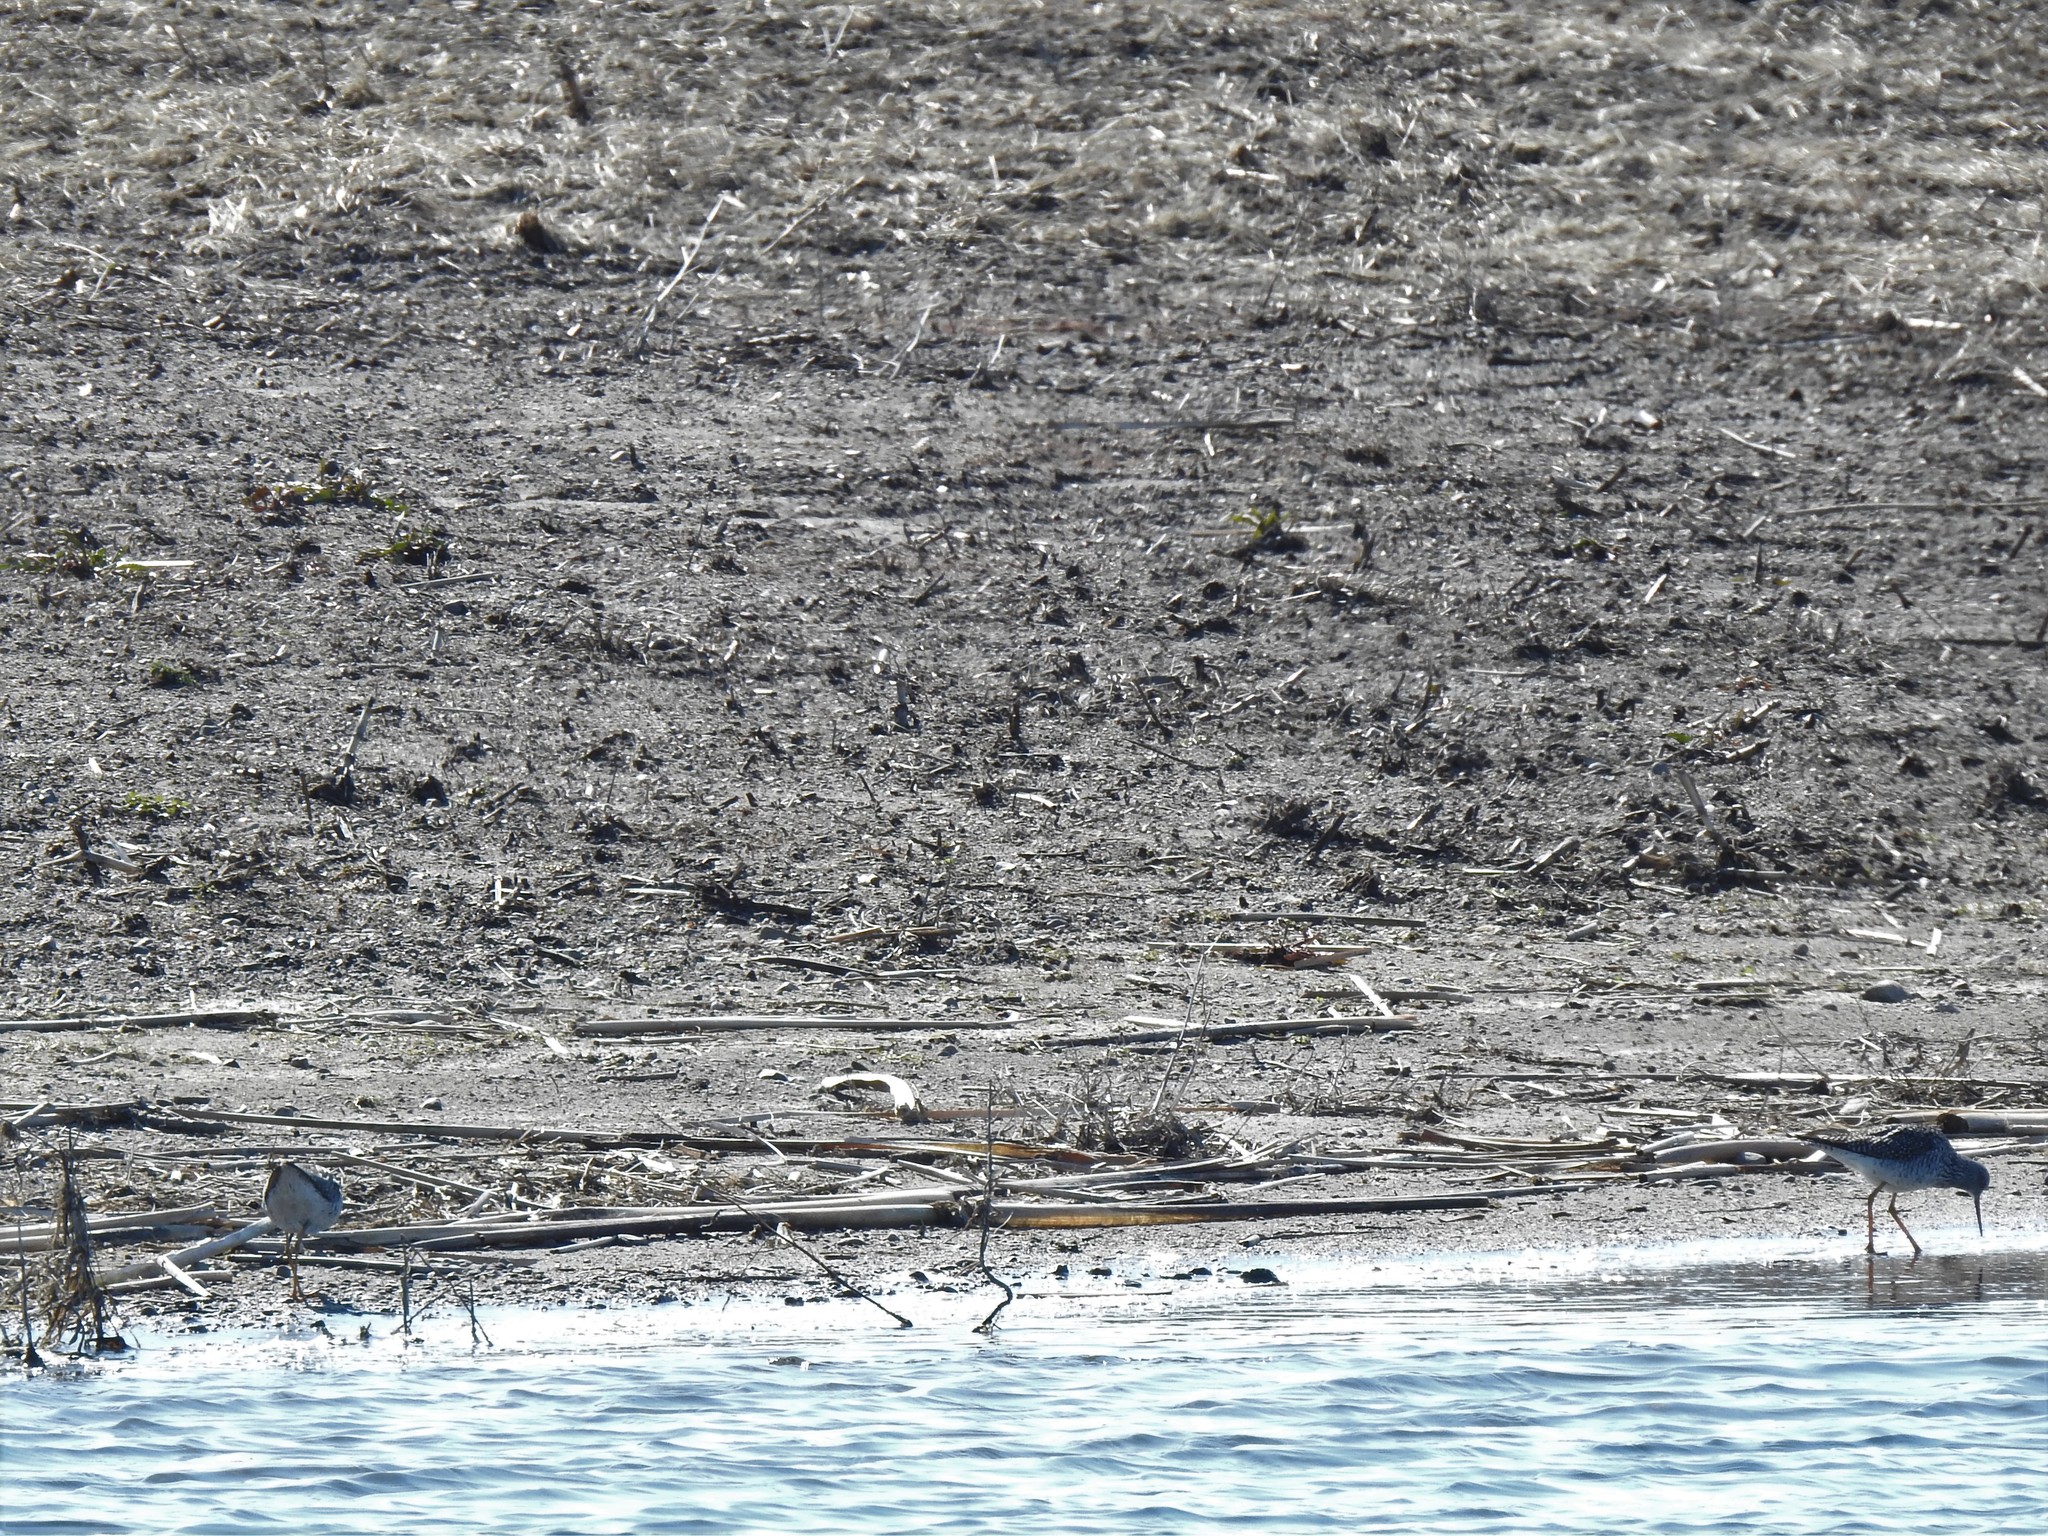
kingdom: Animalia
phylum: Chordata
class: Aves
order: Charadriiformes
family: Scolopacidae
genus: Tringa
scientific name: Tringa melanoleuca
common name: Greater yellowlegs
